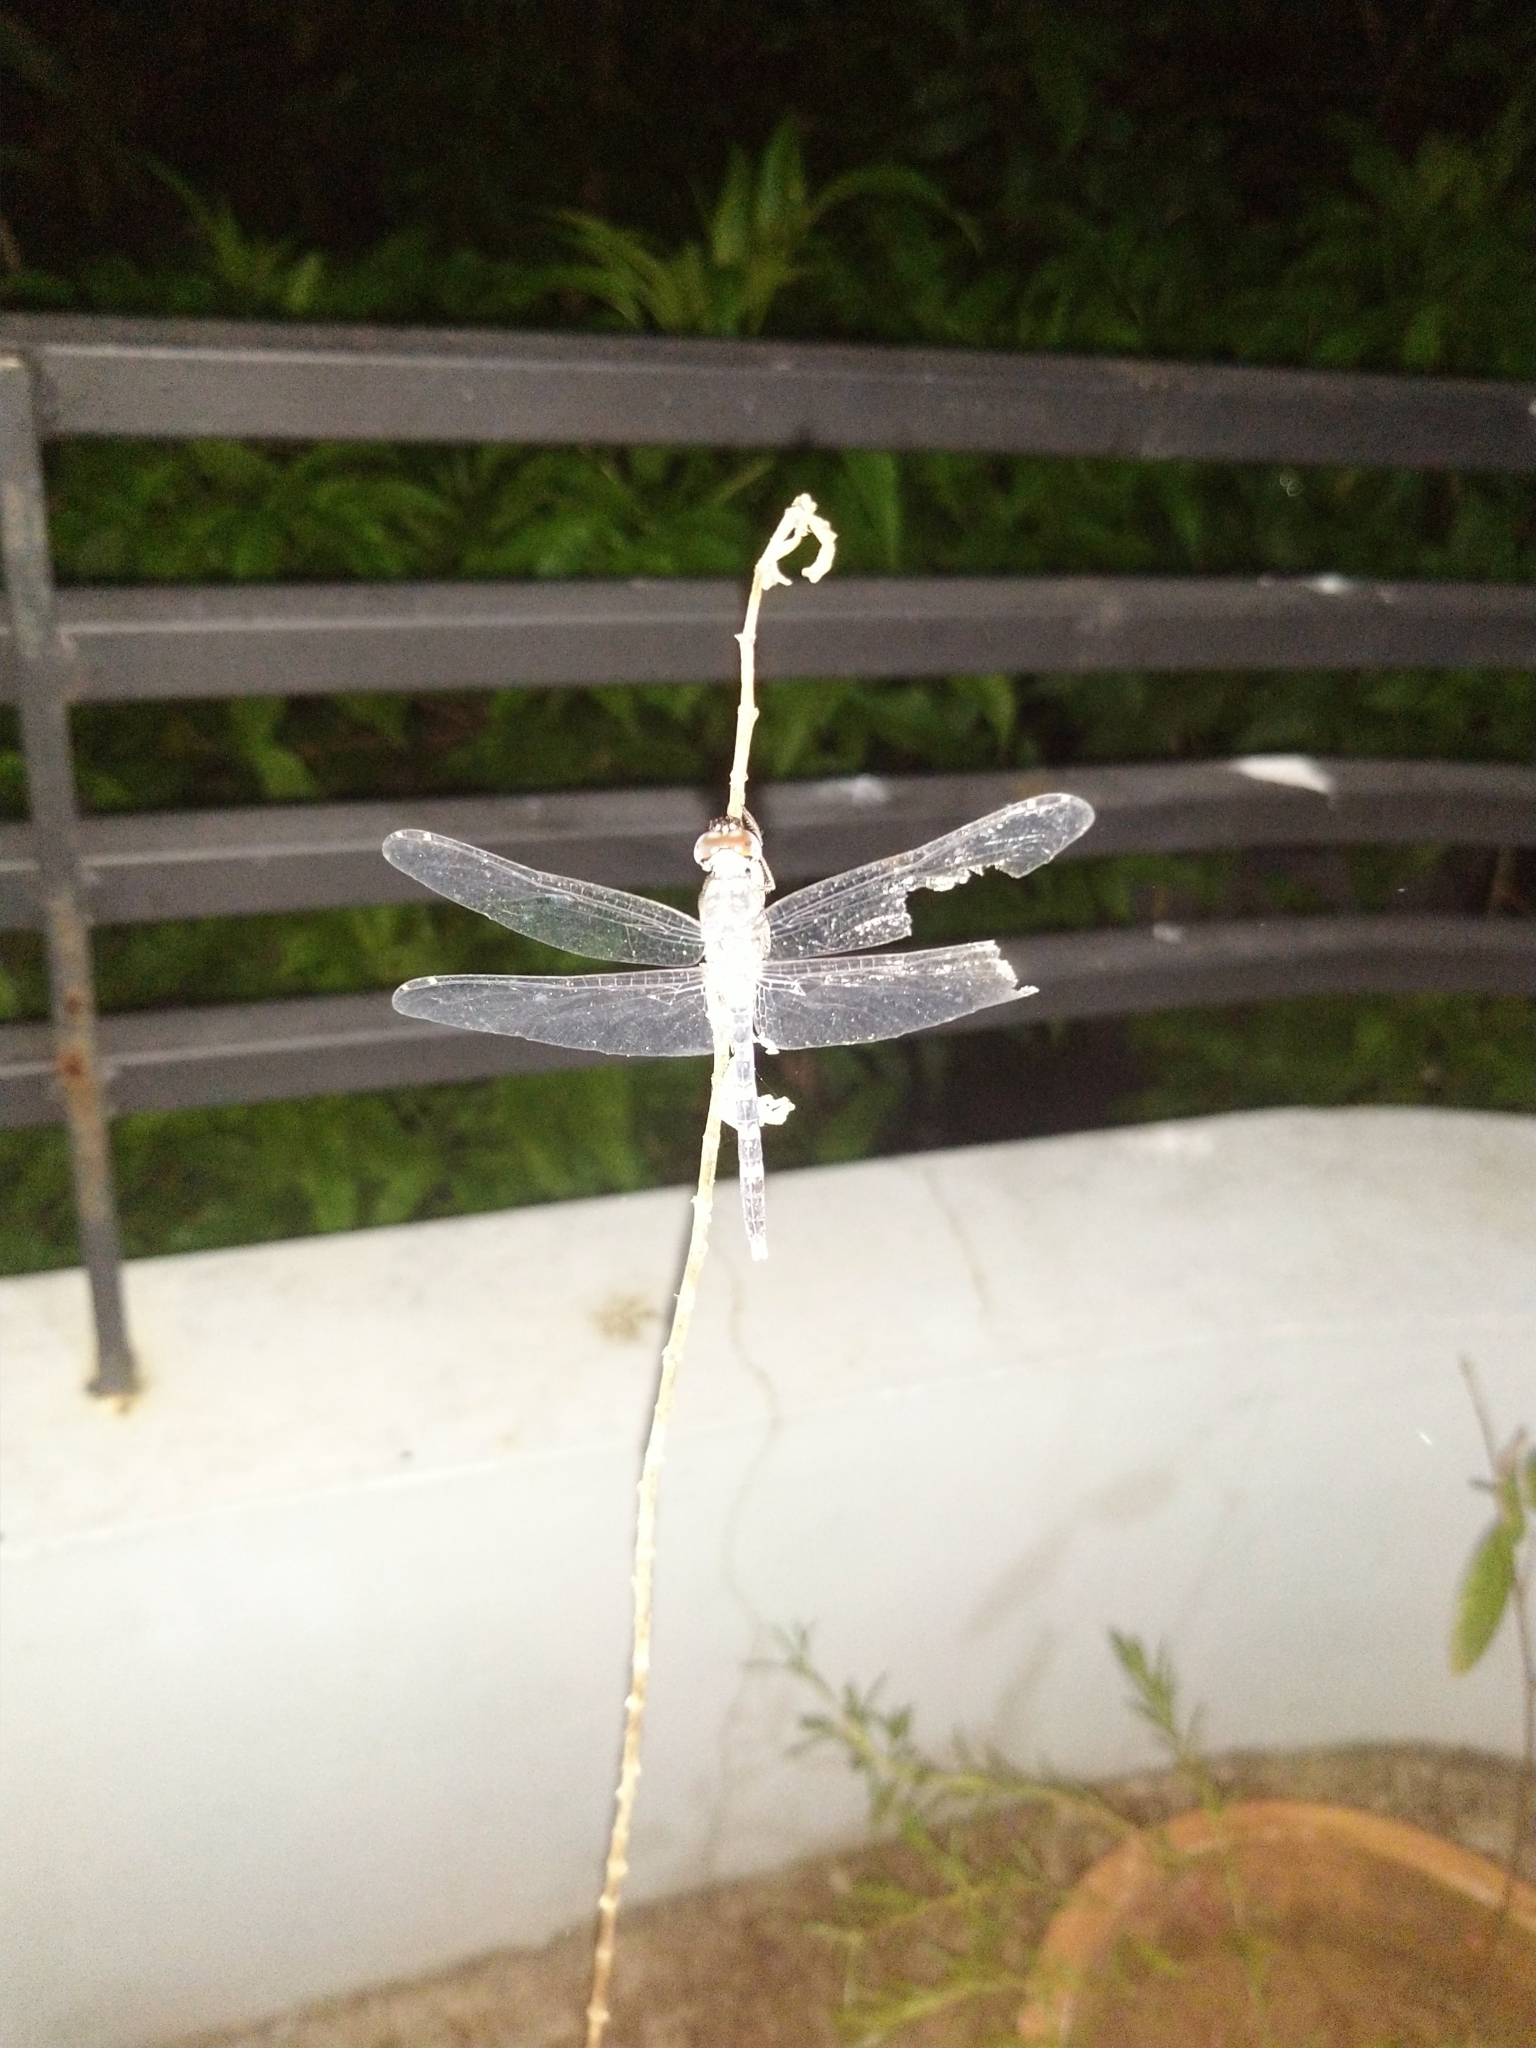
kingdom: Animalia
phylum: Arthropoda
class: Insecta
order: Odonata
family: Libellulidae
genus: Bradinopyga
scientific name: Bradinopyga geminata
